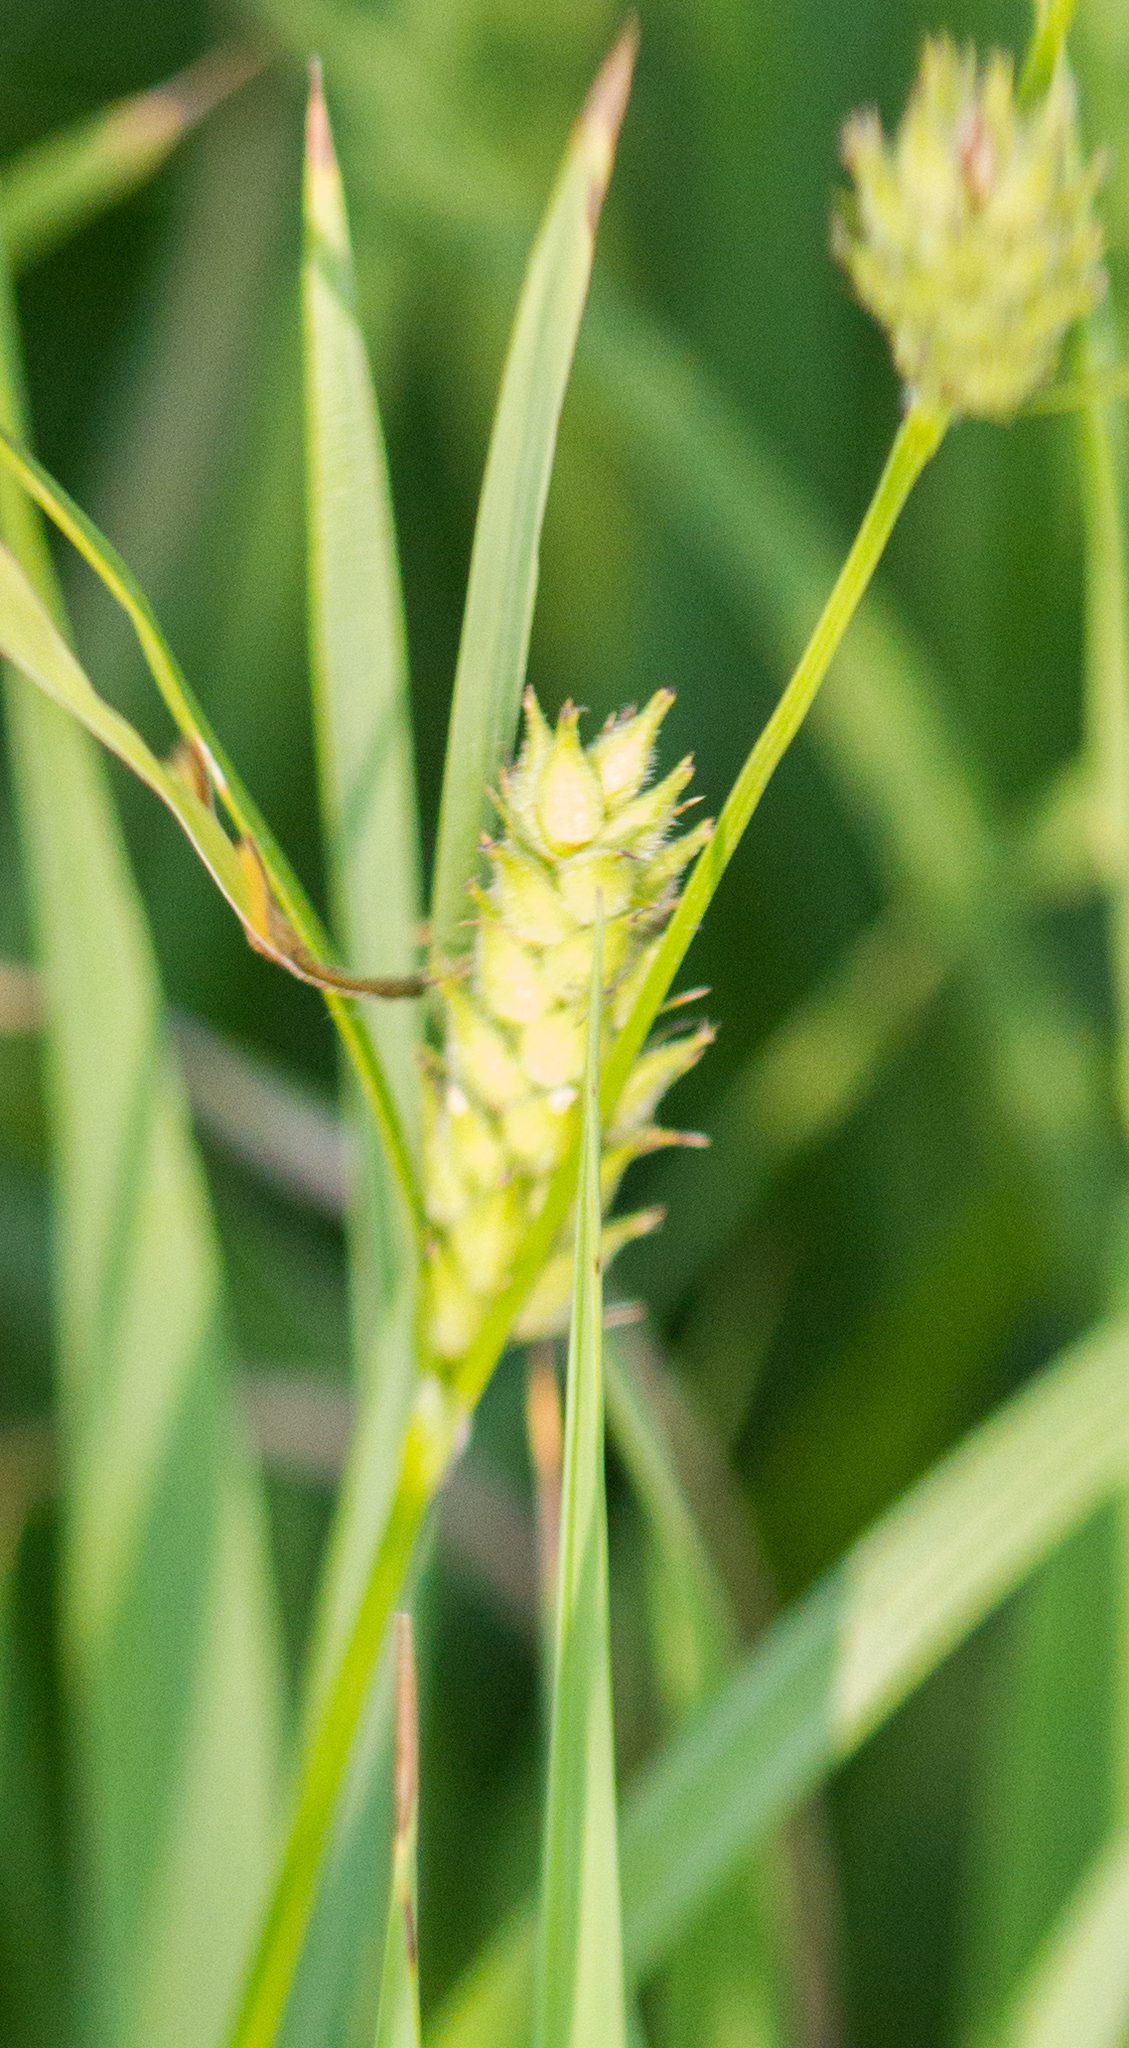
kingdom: Plantae
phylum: Tracheophyta
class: Liliopsida
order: Poales
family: Cyperaceae
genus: Carex
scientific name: Carex hirta
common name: Hairy sedge
